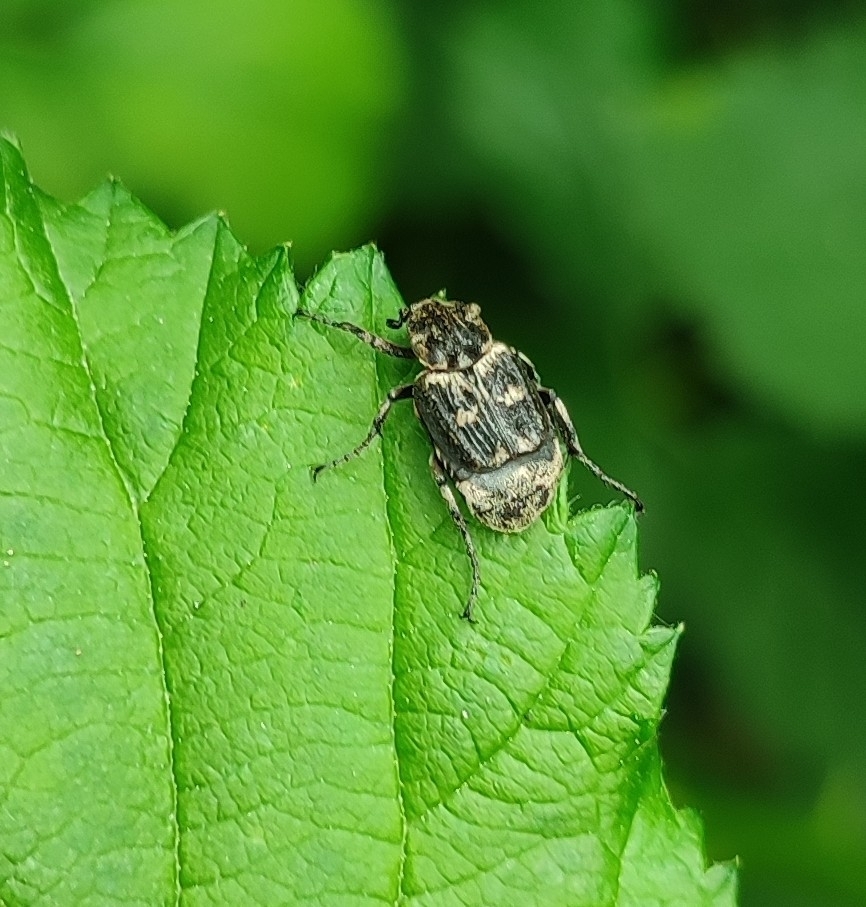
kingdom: Animalia
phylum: Arthropoda
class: Insecta
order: Coleoptera
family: Scarabaeidae
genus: Valgus
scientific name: Valgus hemipterus
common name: Bug flower chafer
